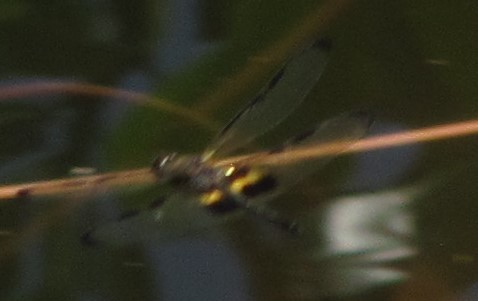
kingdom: Animalia
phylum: Arthropoda
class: Insecta
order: Odonata
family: Libellulidae
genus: Rhyothemis
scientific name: Rhyothemis phyllis
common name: Yellow-barred flutterer
